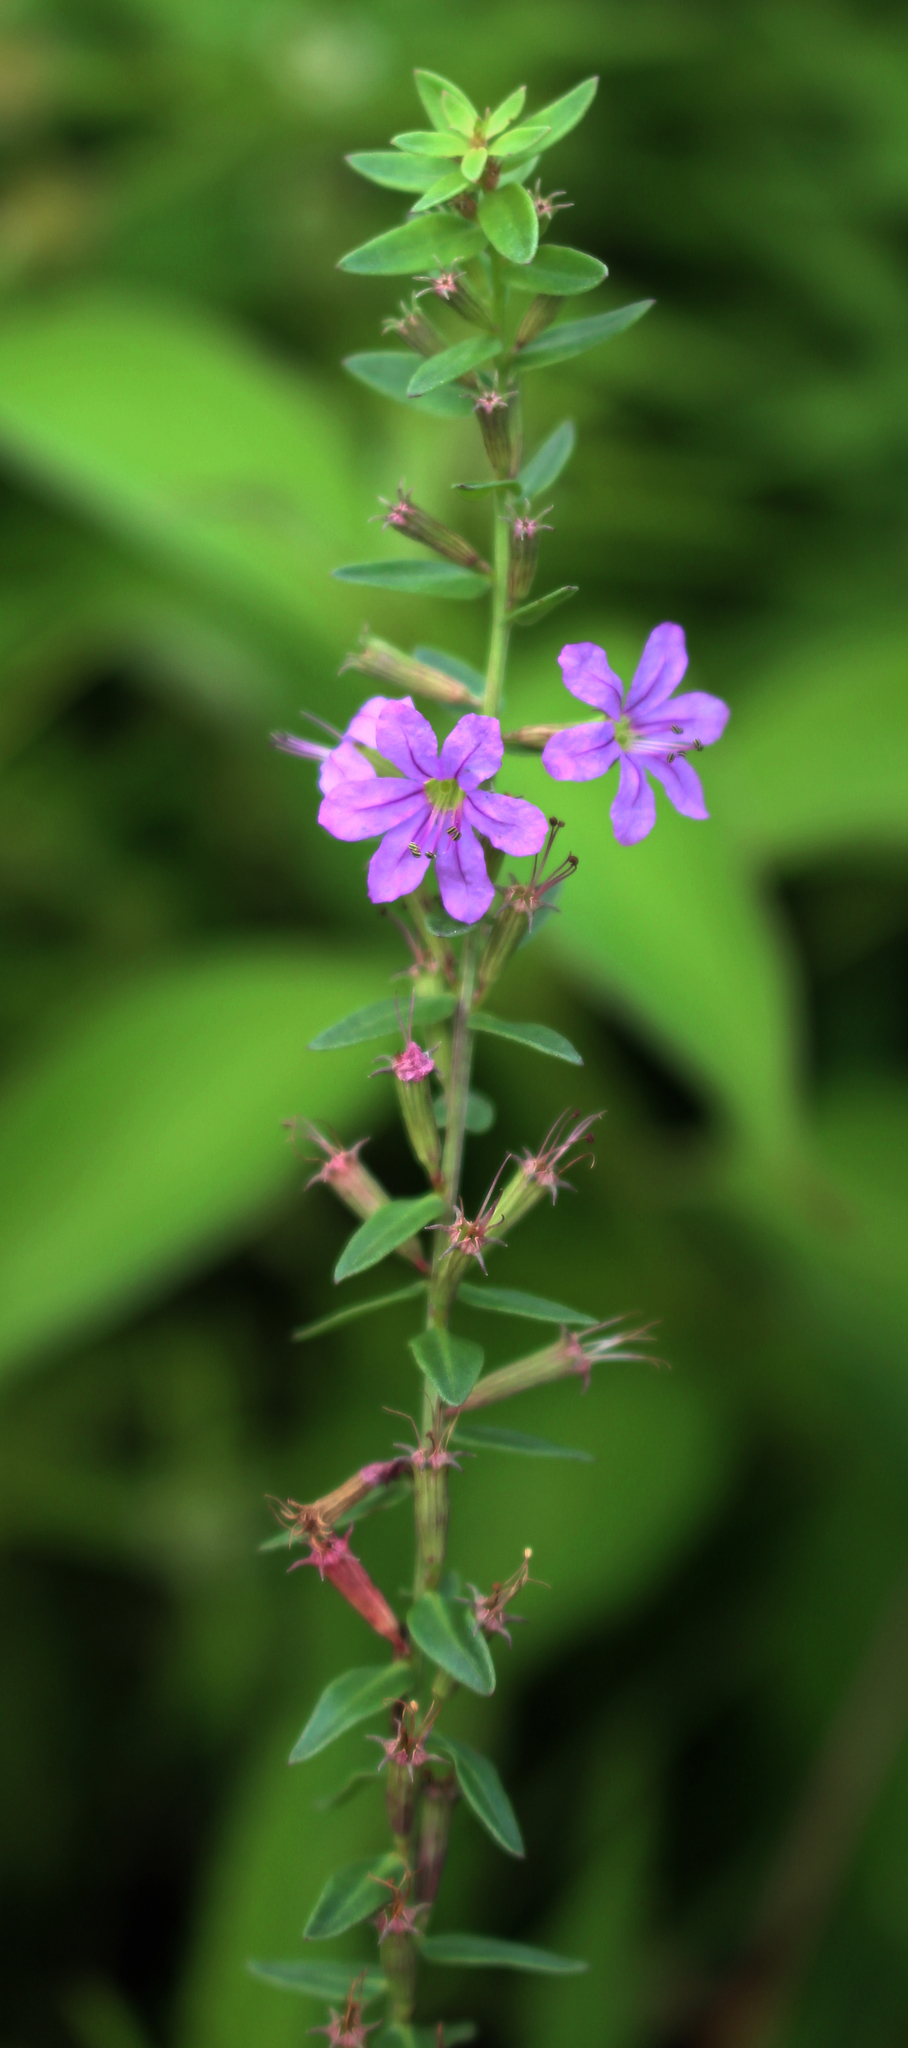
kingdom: Plantae
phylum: Tracheophyta
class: Magnoliopsida
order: Myrtales
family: Lythraceae
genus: Lythrum
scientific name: Lythrum alatum
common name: Winged loosestrife
